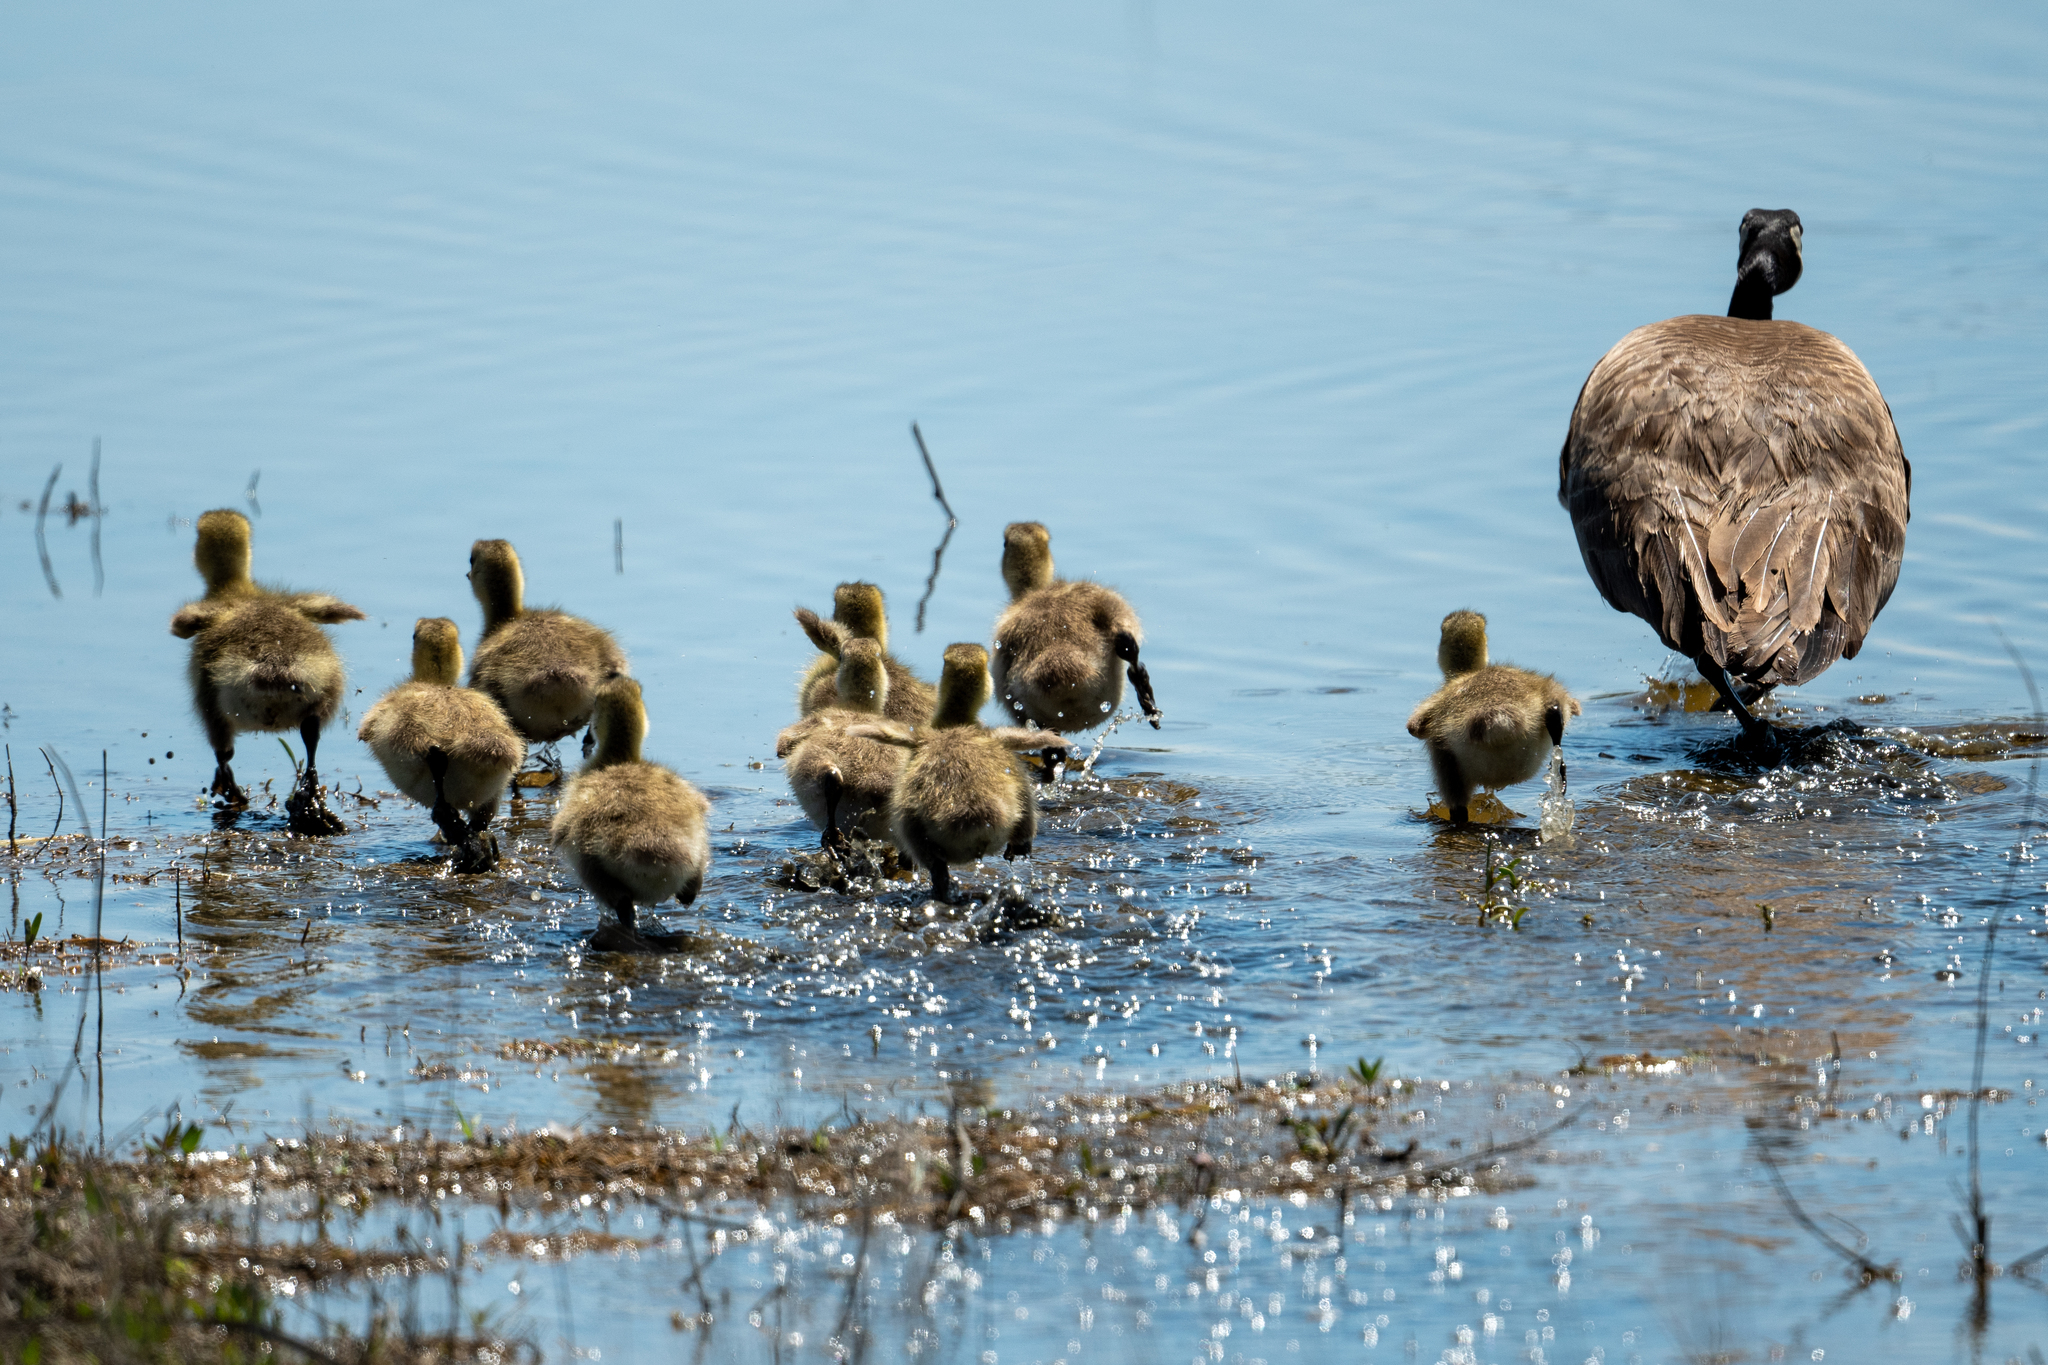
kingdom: Animalia
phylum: Chordata
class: Aves
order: Anseriformes
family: Anatidae
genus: Branta
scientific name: Branta canadensis
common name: Canada goose
